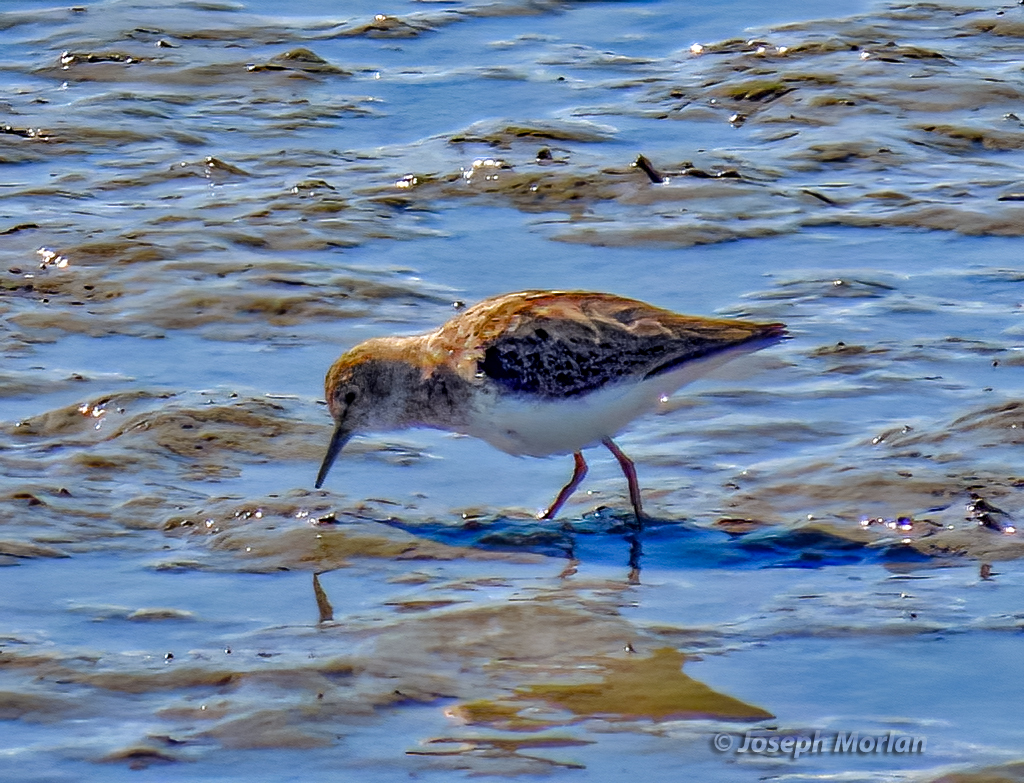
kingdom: Animalia
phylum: Chordata
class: Aves
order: Charadriiformes
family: Scolopacidae
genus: Calidris
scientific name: Calidris minutilla
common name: Least sandpiper
